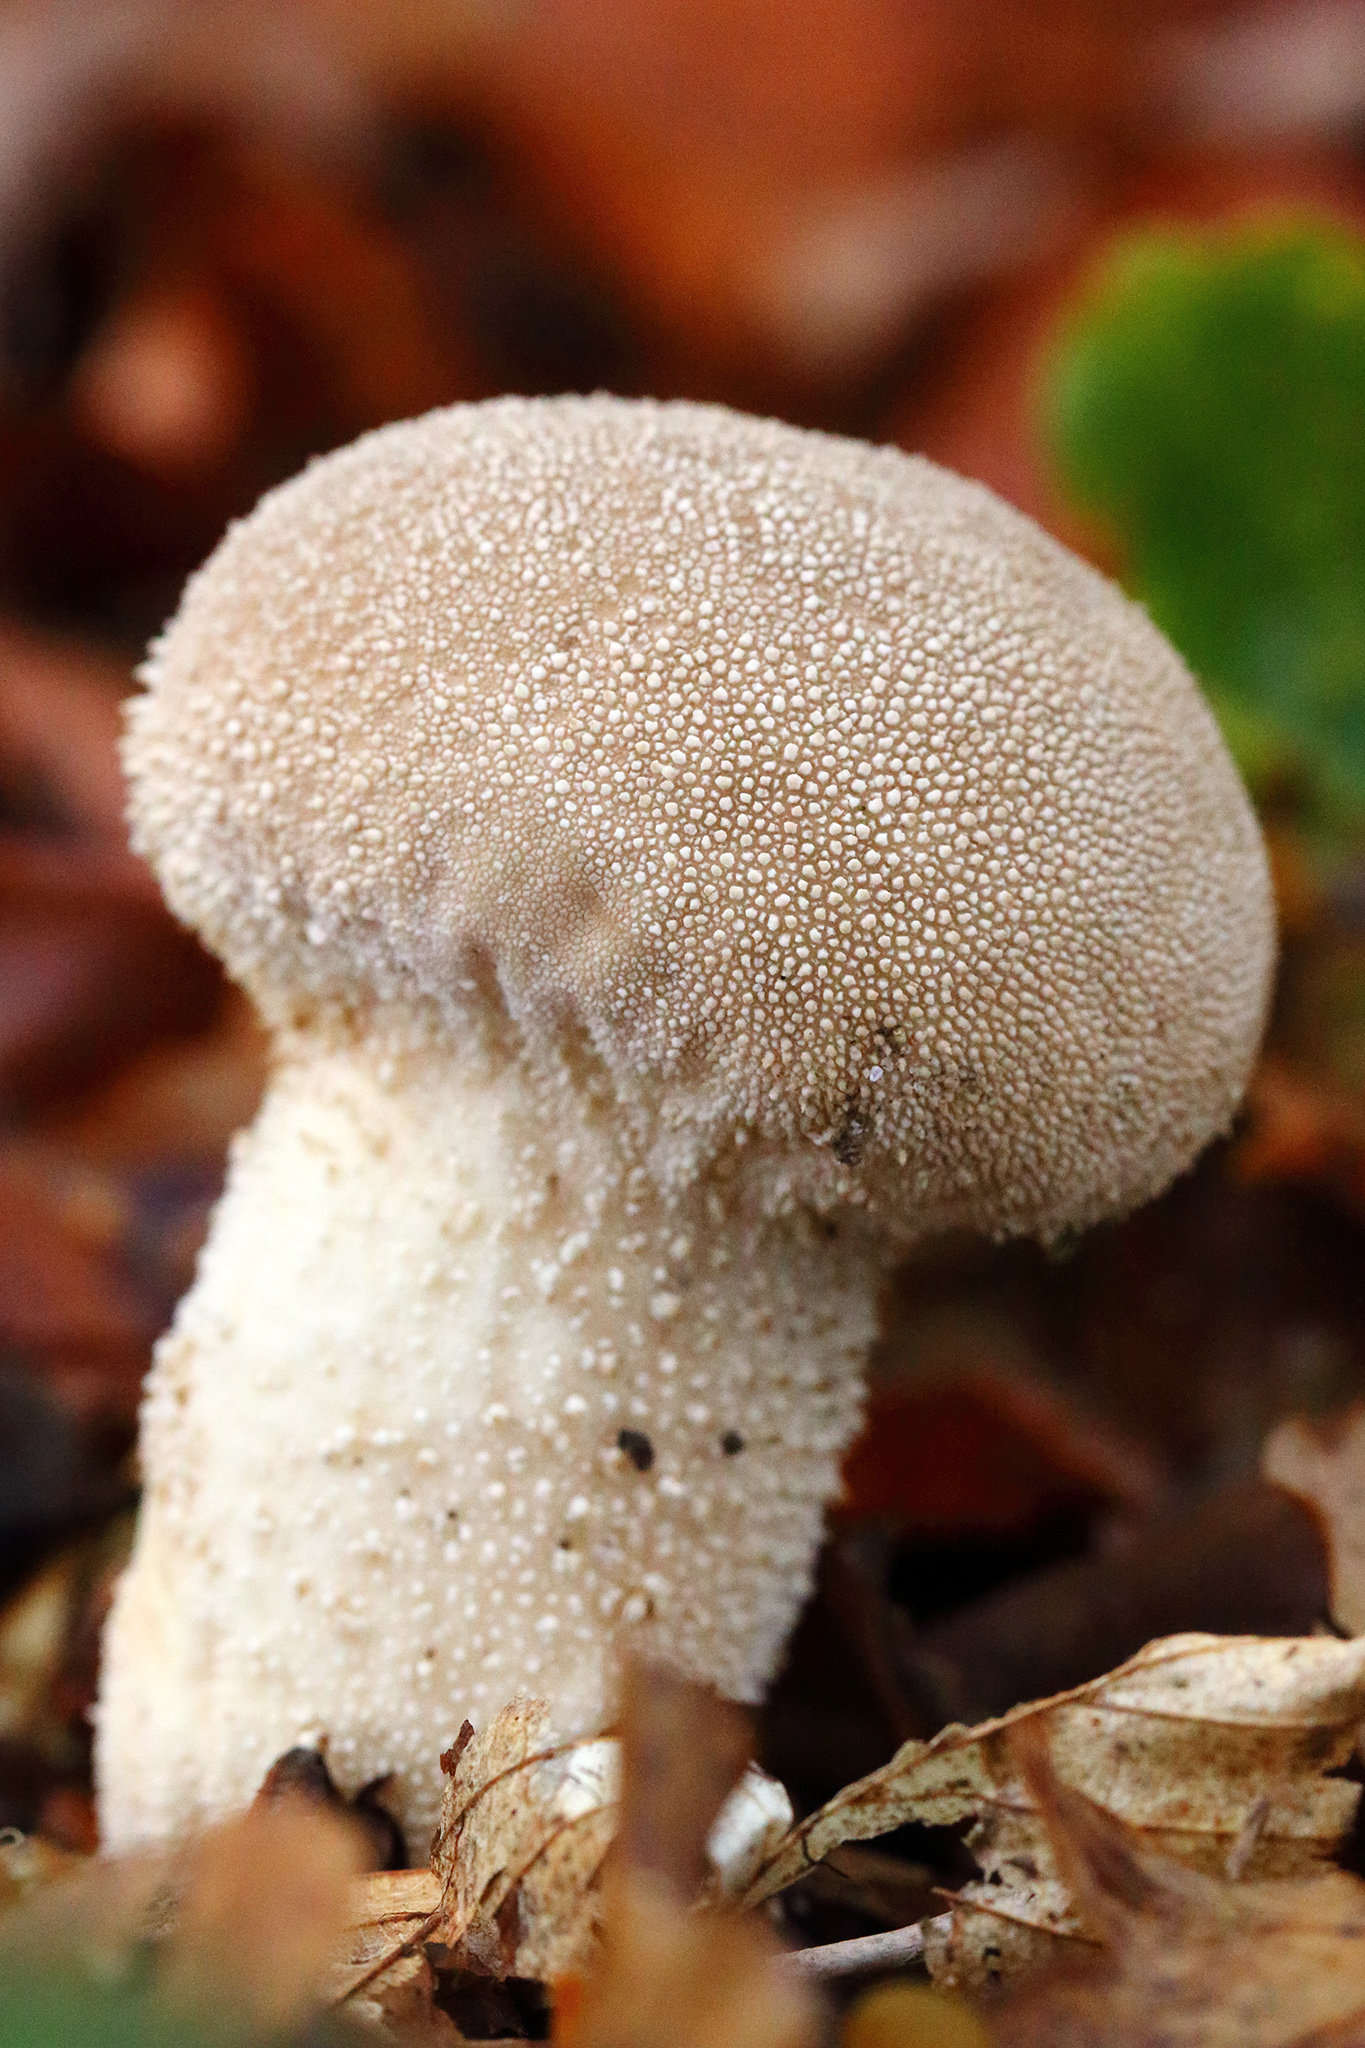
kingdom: Fungi
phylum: Basidiomycota
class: Agaricomycetes
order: Agaricales
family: Lycoperdaceae
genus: Lycoperdon
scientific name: Lycoperdon perlatum
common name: Common puffball
